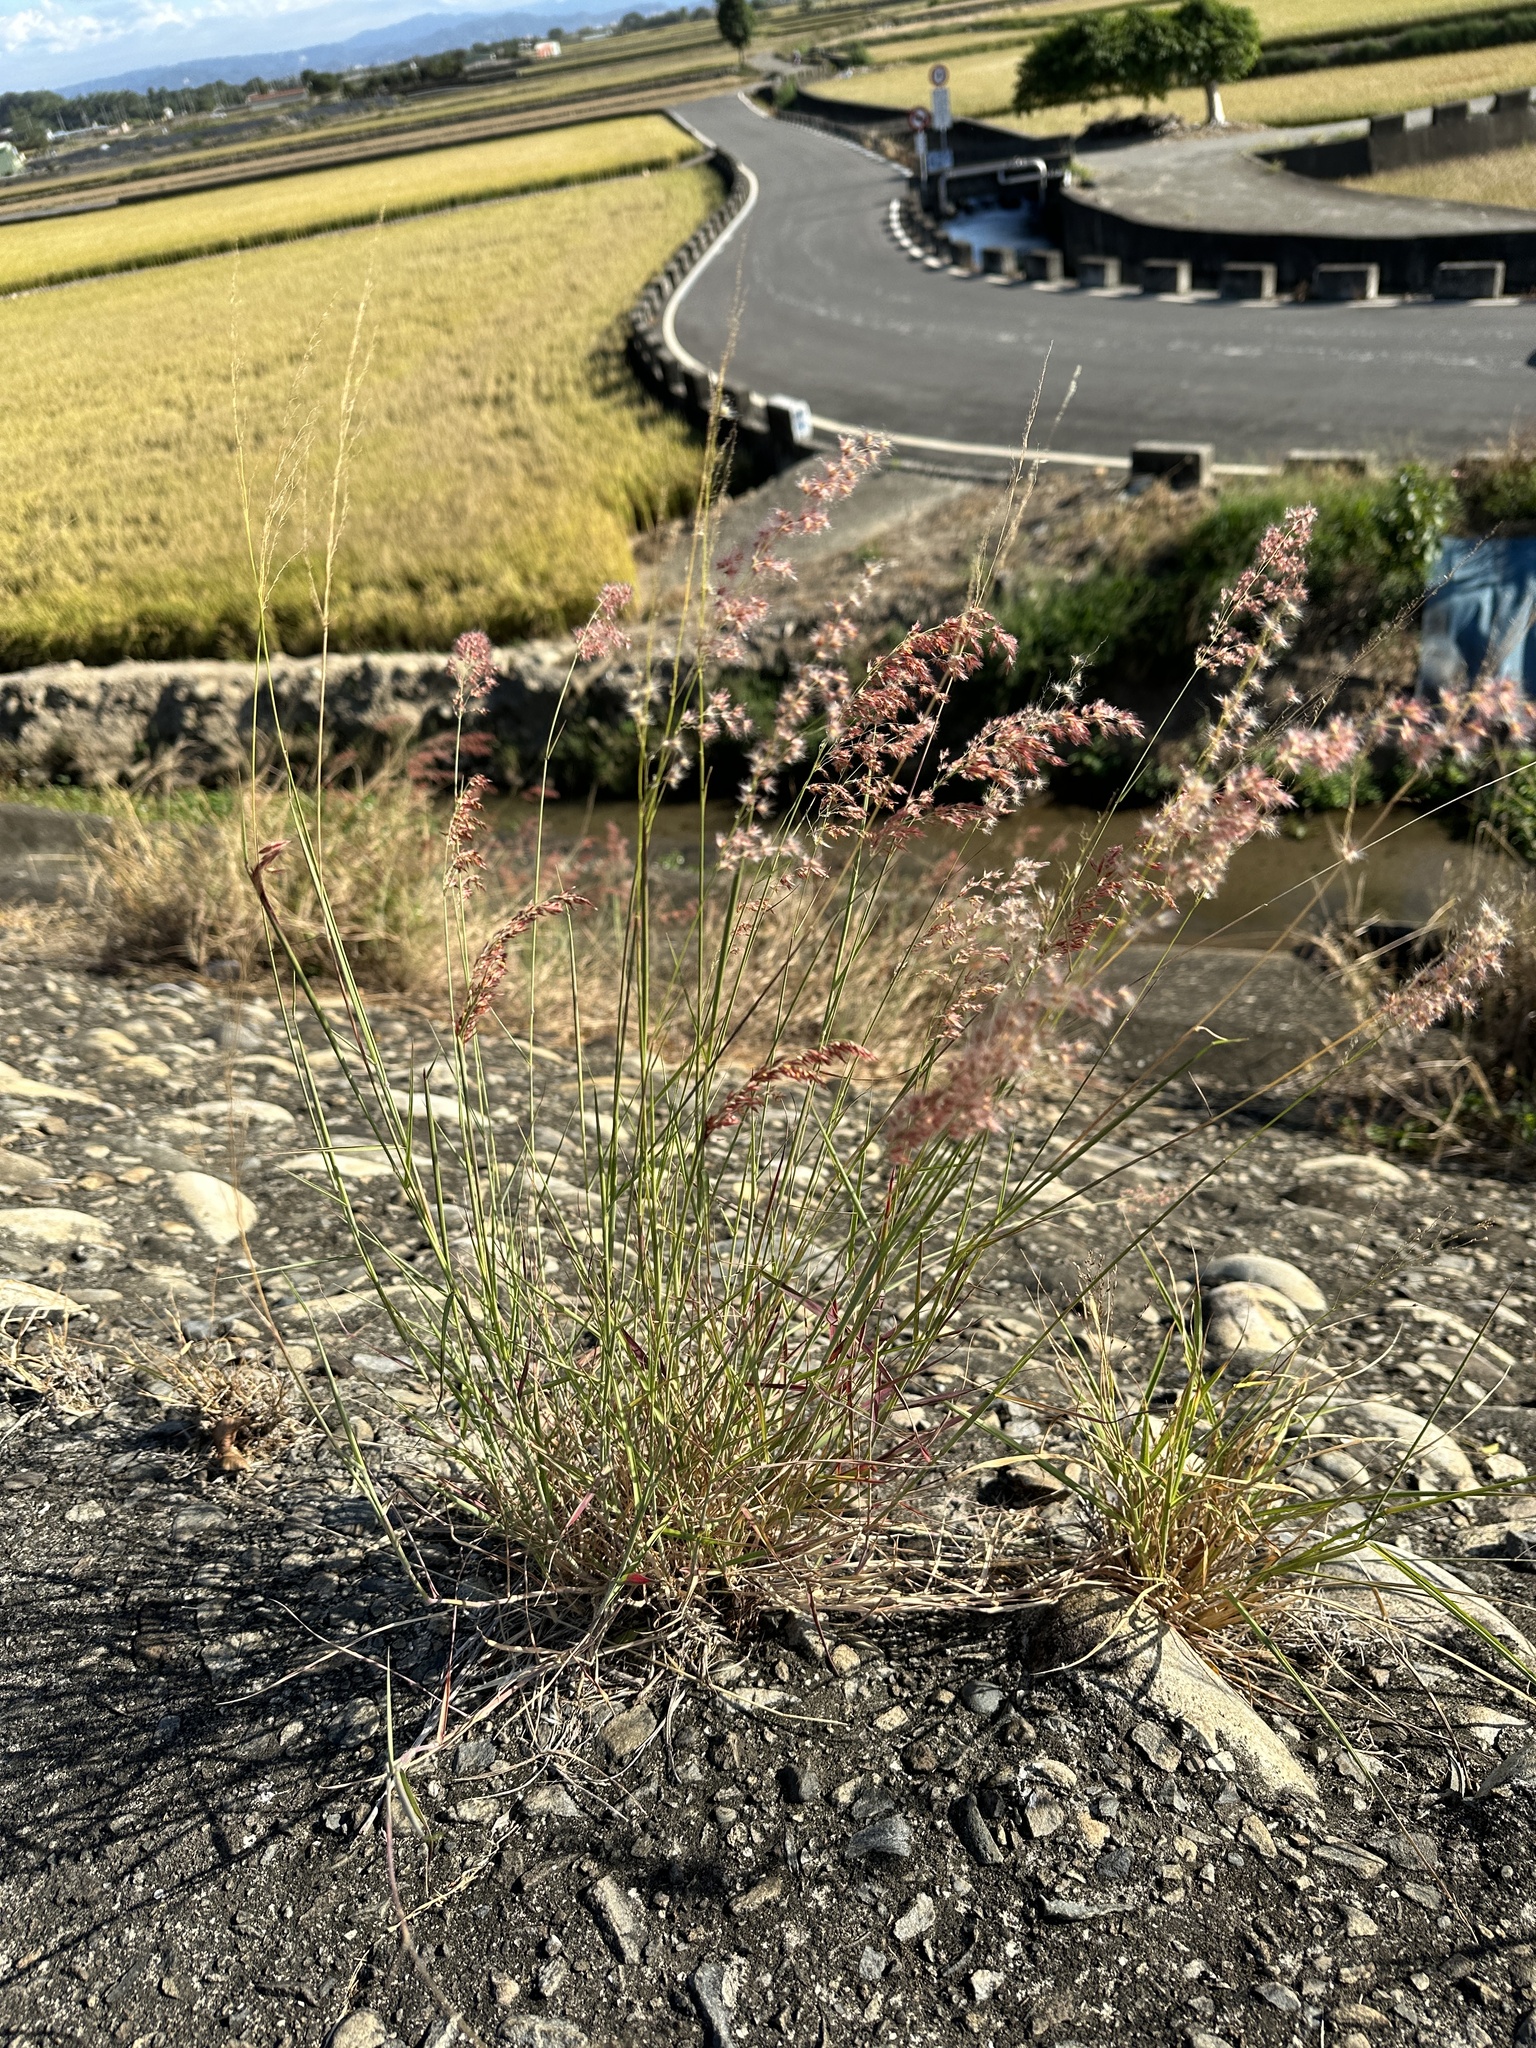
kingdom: Plantae
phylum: Tracheophyta
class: Liliopsida
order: Poales
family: Poaceae
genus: Melinis
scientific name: Melinis repens
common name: Rose natal grass
